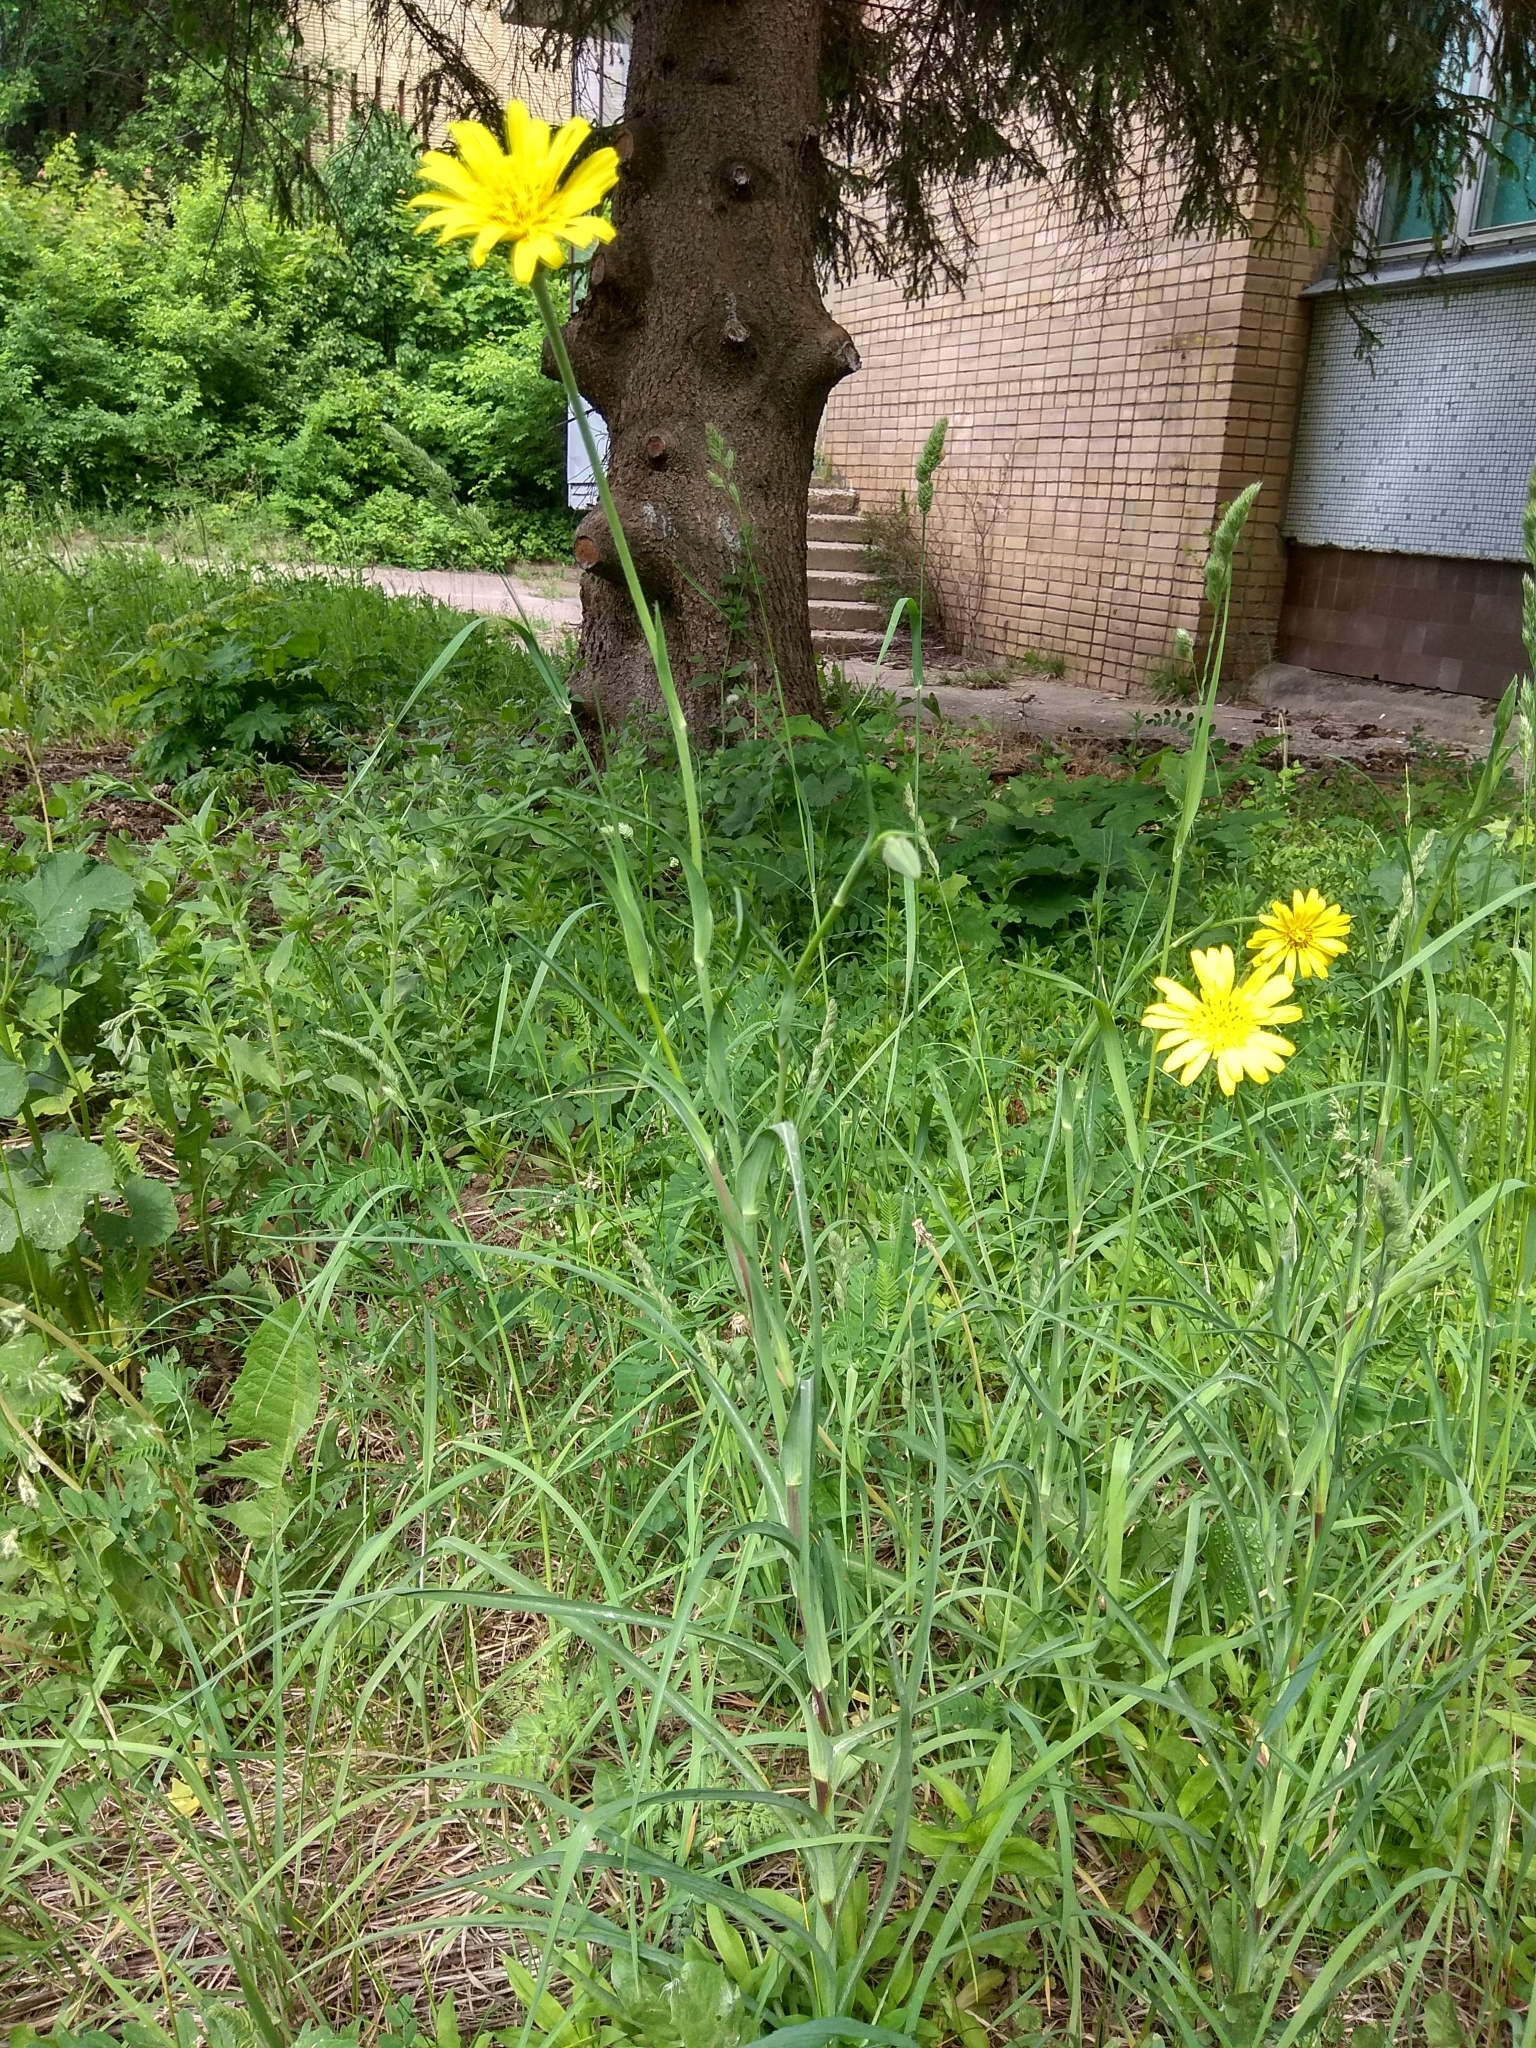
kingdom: Plantae
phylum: Tracheophyta
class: Magnoliopsida
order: Asterales
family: Asteraceae
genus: Tragopogon
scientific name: Tragopogon pratensis
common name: Goat's-beard
